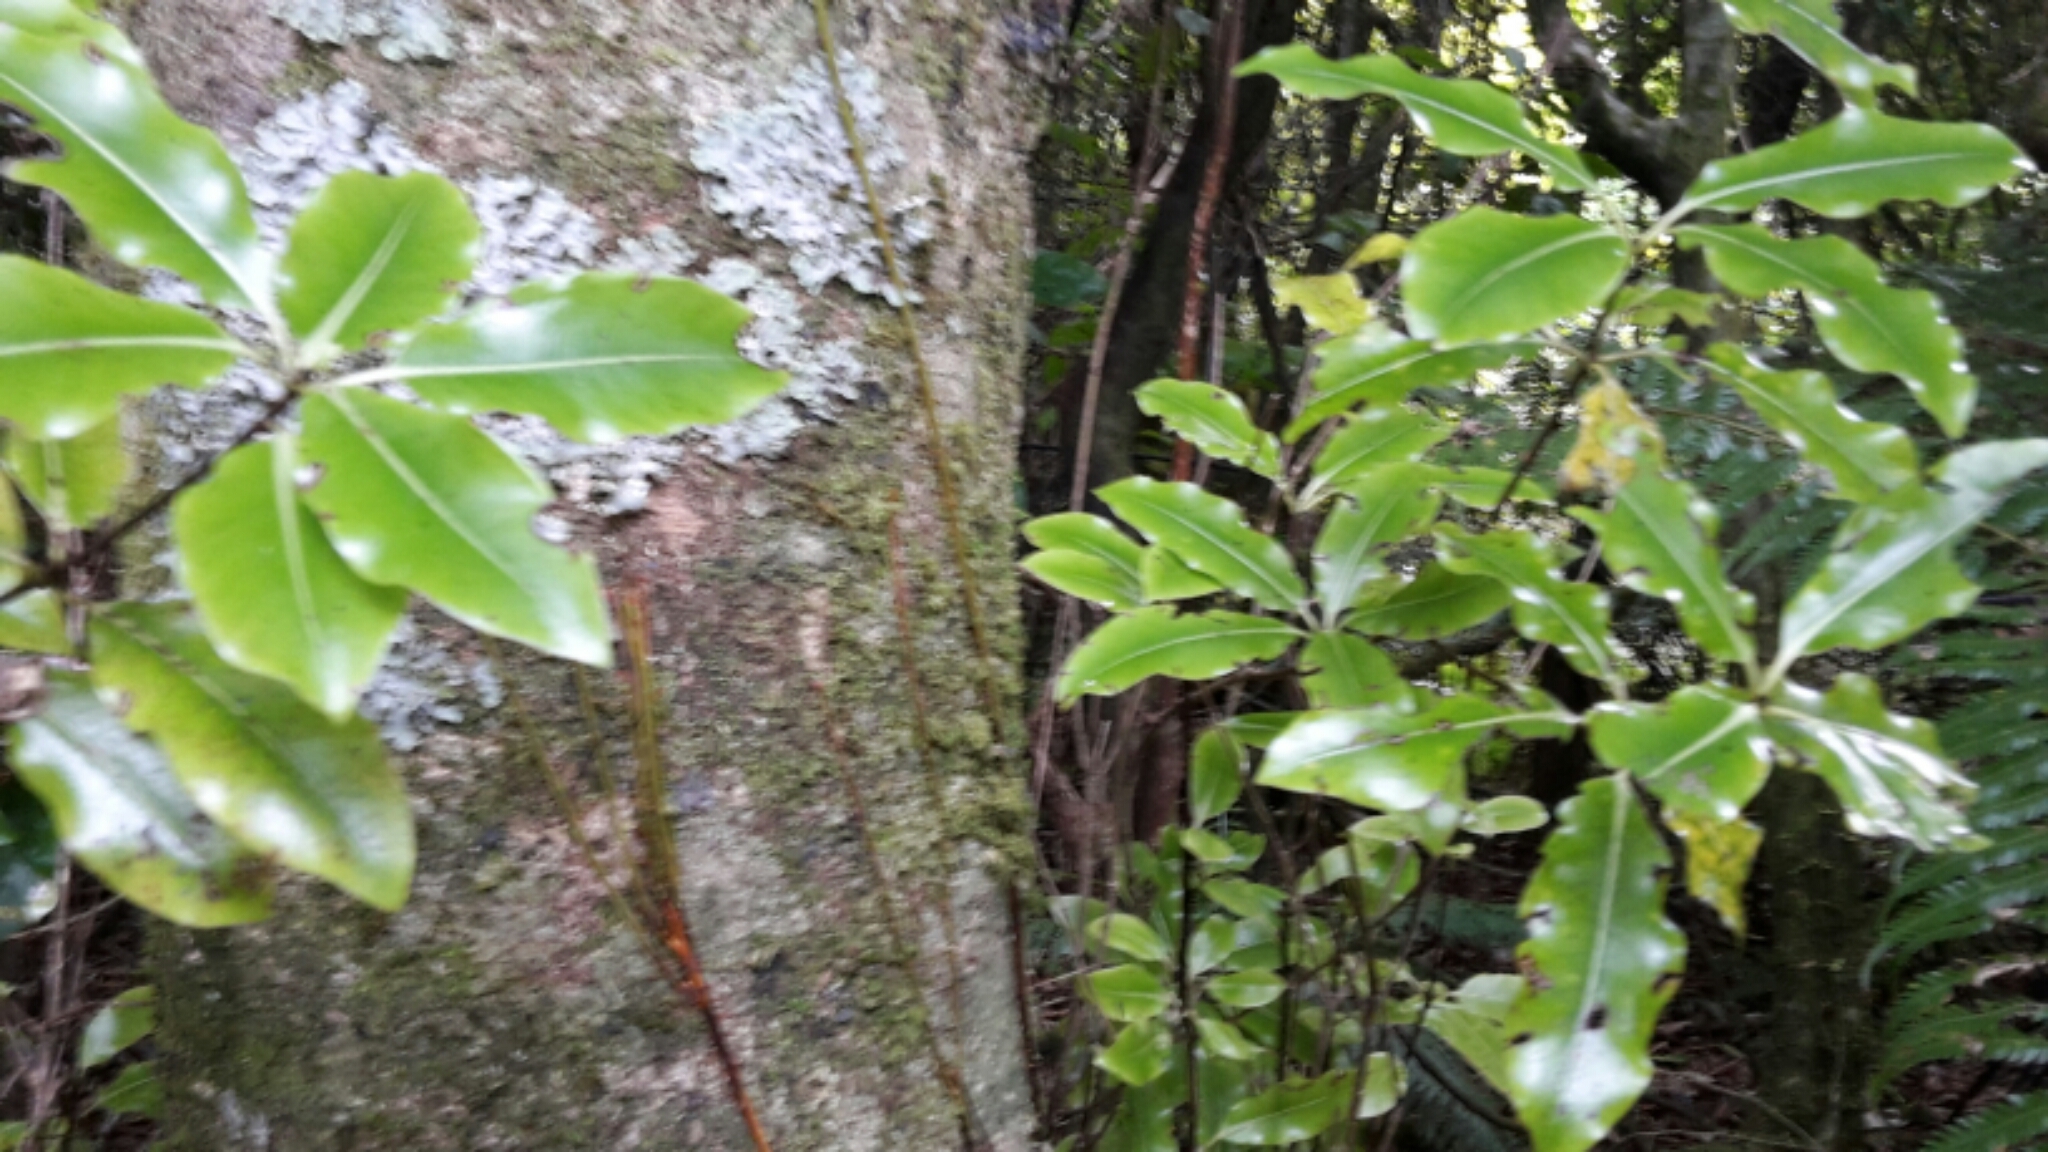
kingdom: Plantae
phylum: Tracheophyta
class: Magnoliopsida
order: Apiales
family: Pittosporaceae
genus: Pittosporum
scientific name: Pittosporum eugenioides
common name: Lemonwood
